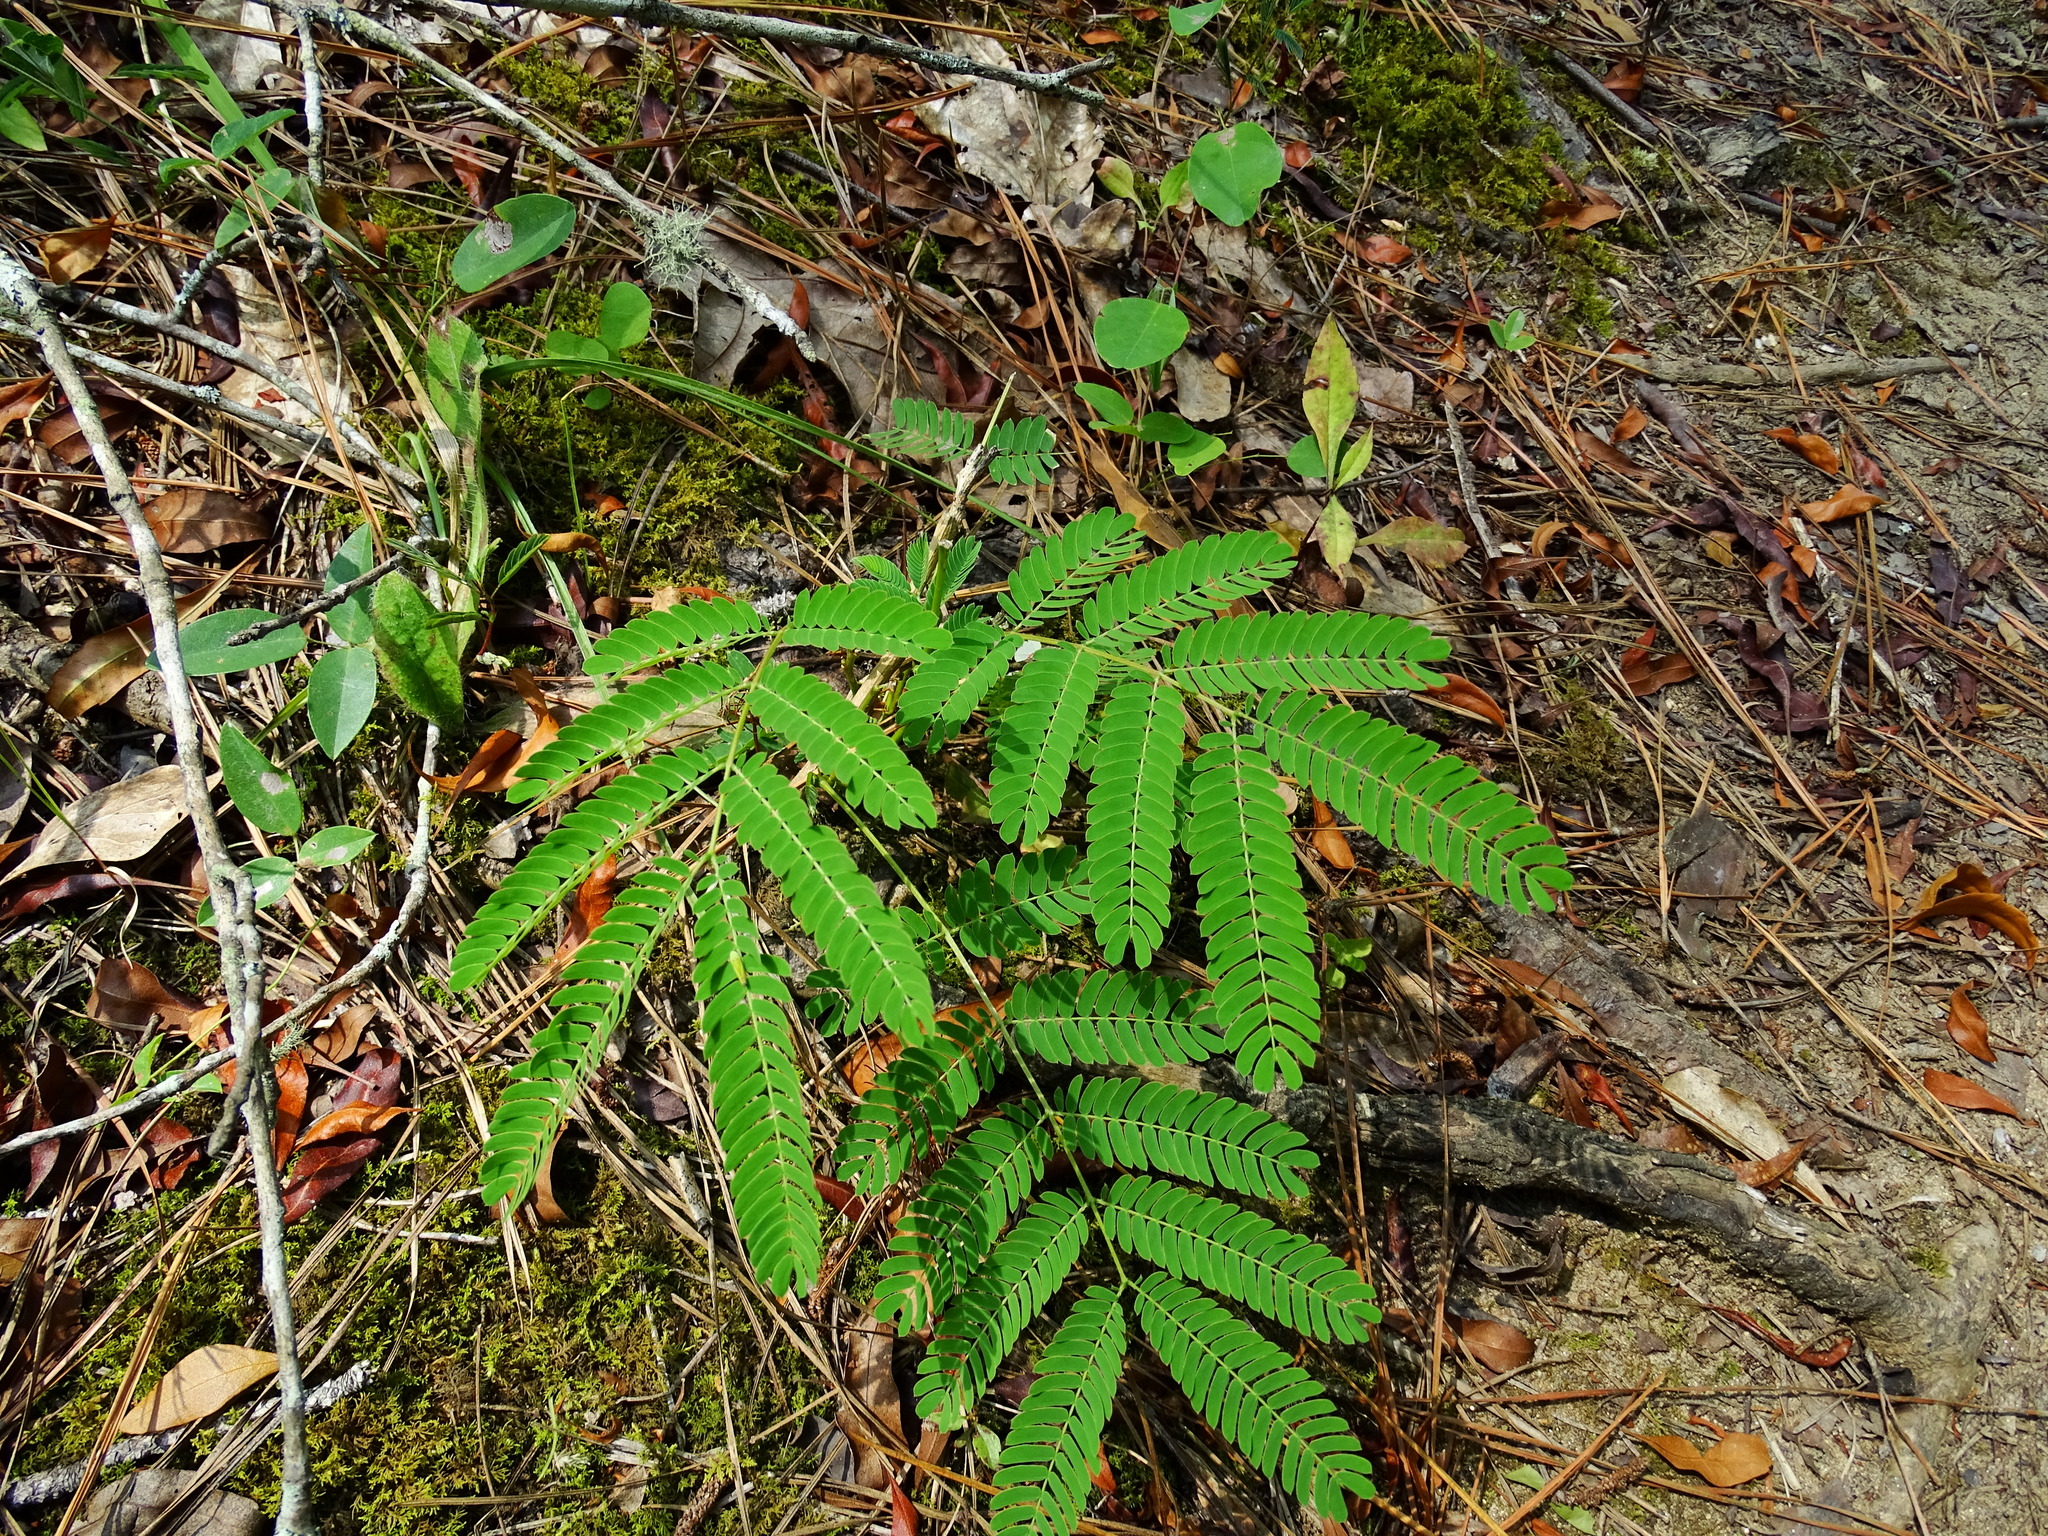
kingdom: Plantae
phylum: Tracheophyta
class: Magnoliopsida
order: Fabales
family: Fabaceae
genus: Albizia
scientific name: Albizia julibrissin
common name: Silktree
